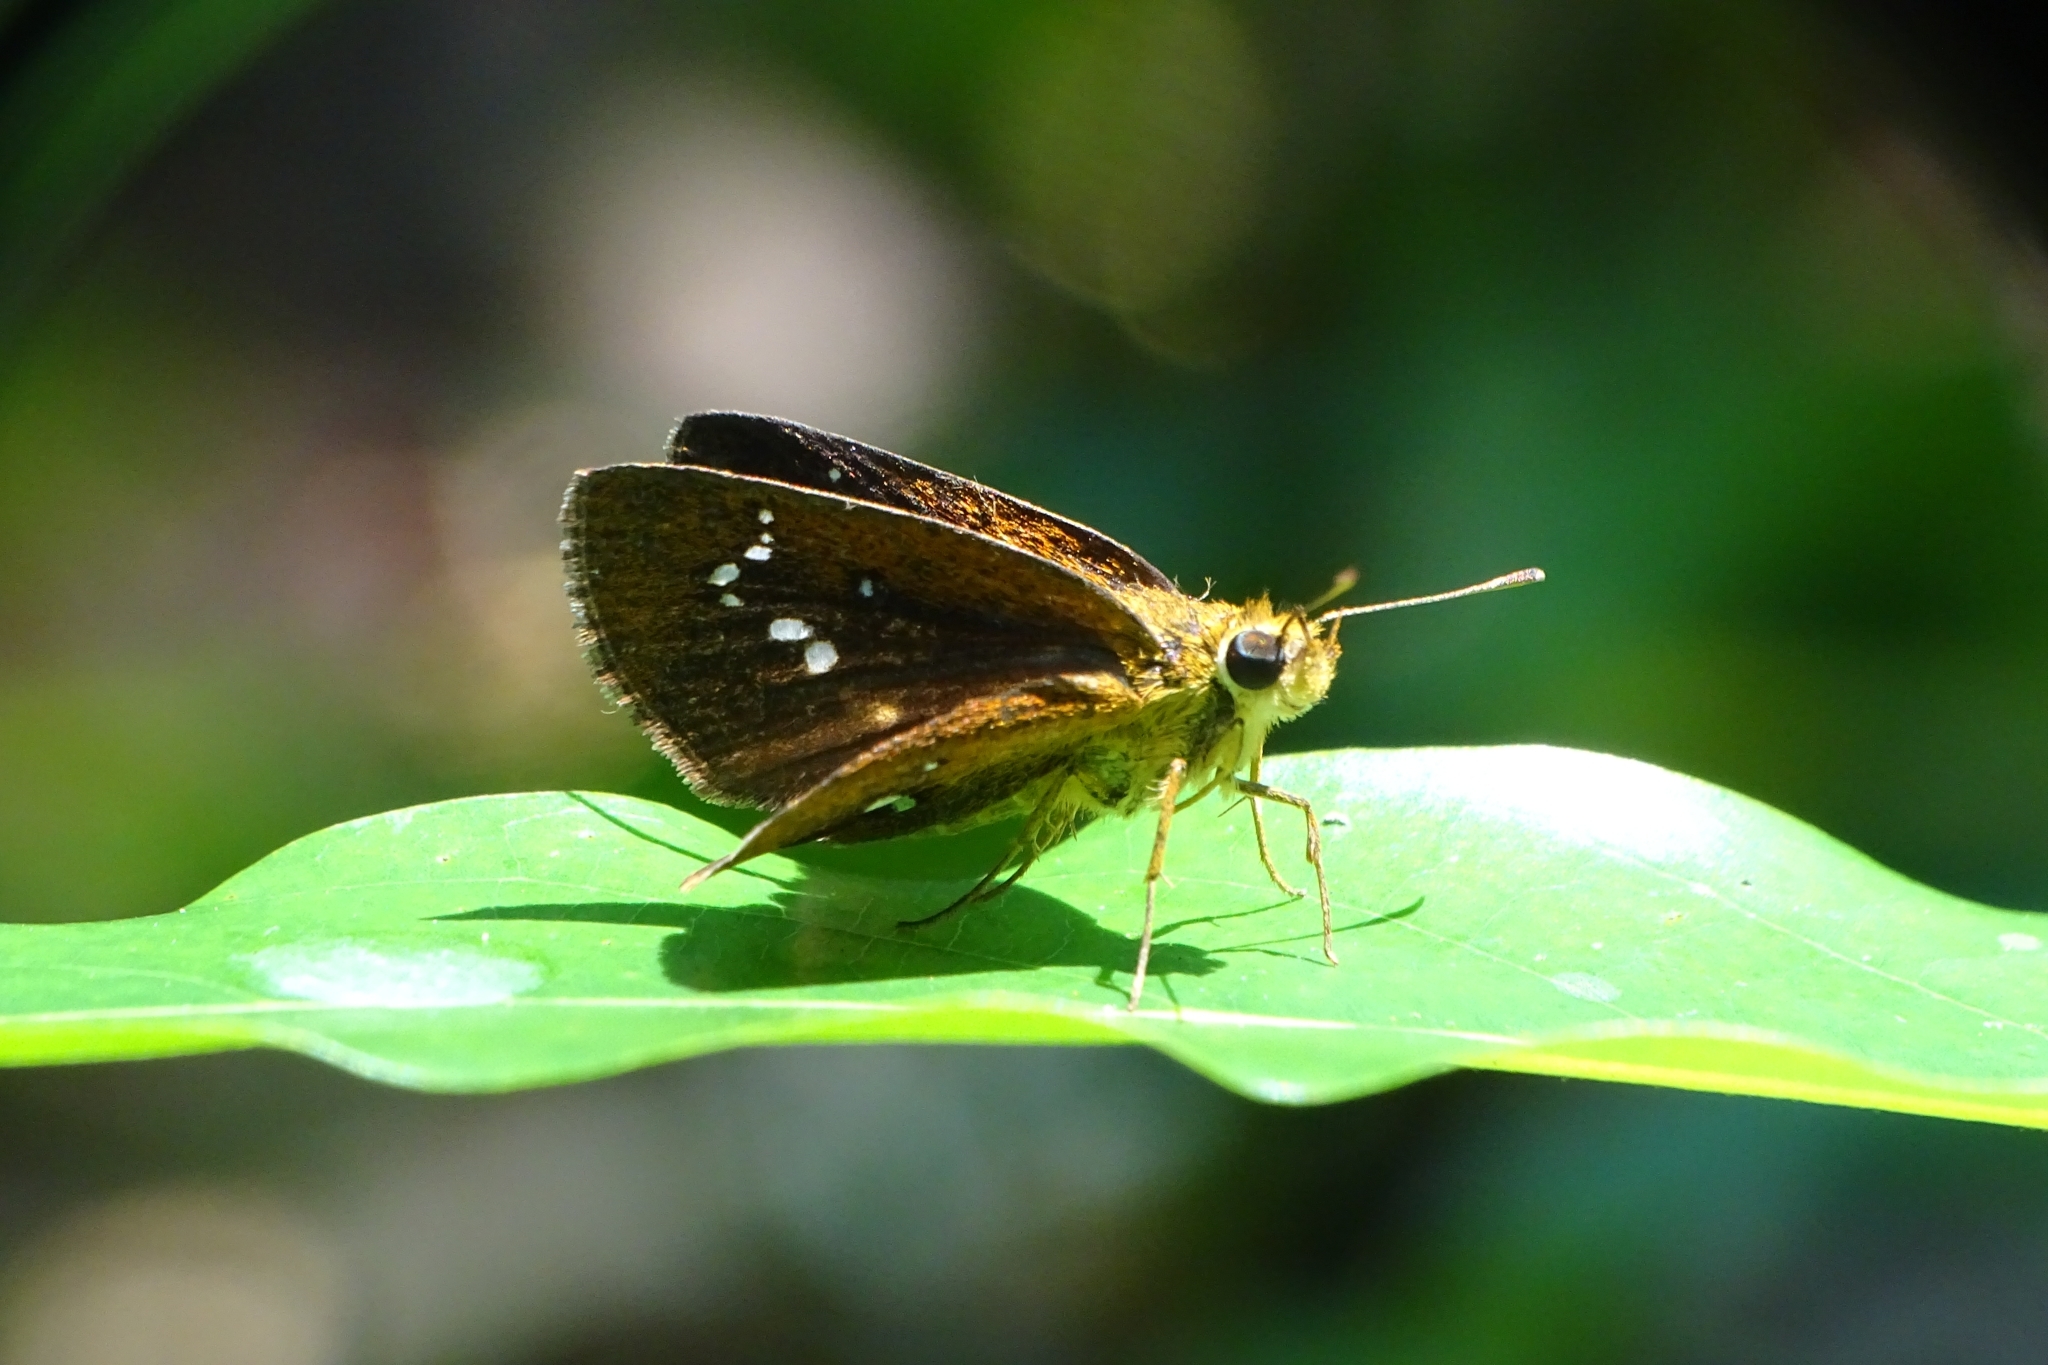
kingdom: Animalia
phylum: Arthropoda
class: Insecta
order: Lepidoptera
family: Hesperiidae
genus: Iambrix
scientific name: Iambrix salsala
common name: Chestnut bob
